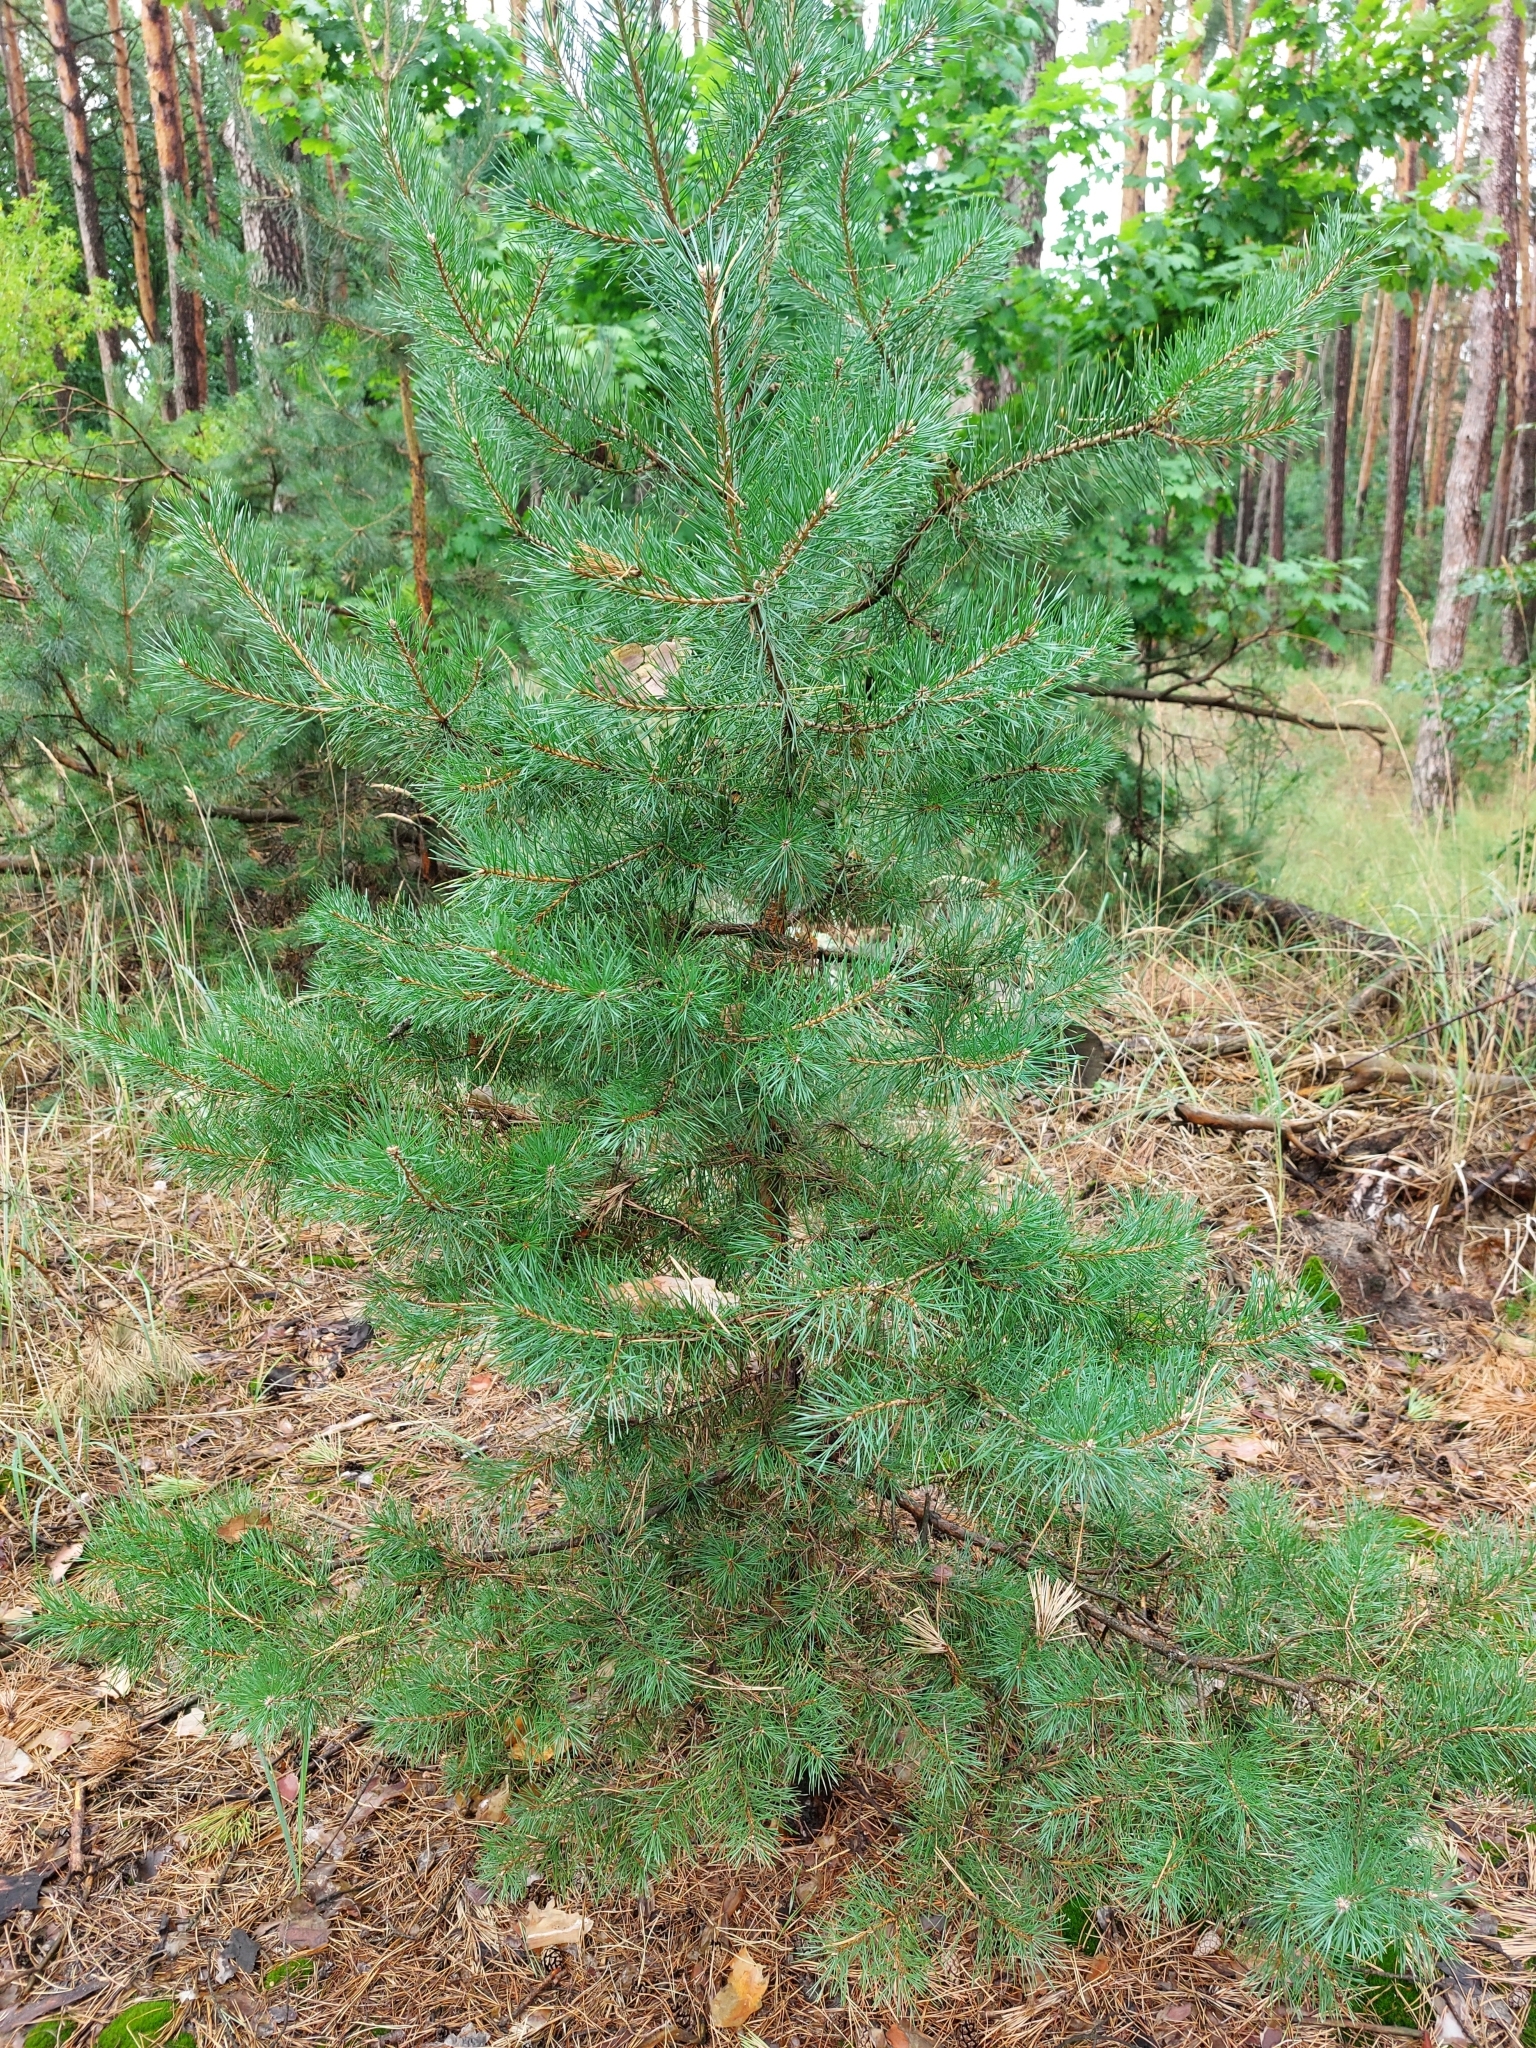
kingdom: Plantae
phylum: Tracheophyta
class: Pinopsida
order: Pinales
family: Pinaceae
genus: Pinus
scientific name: Pinus sylvestris
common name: Scots pine
